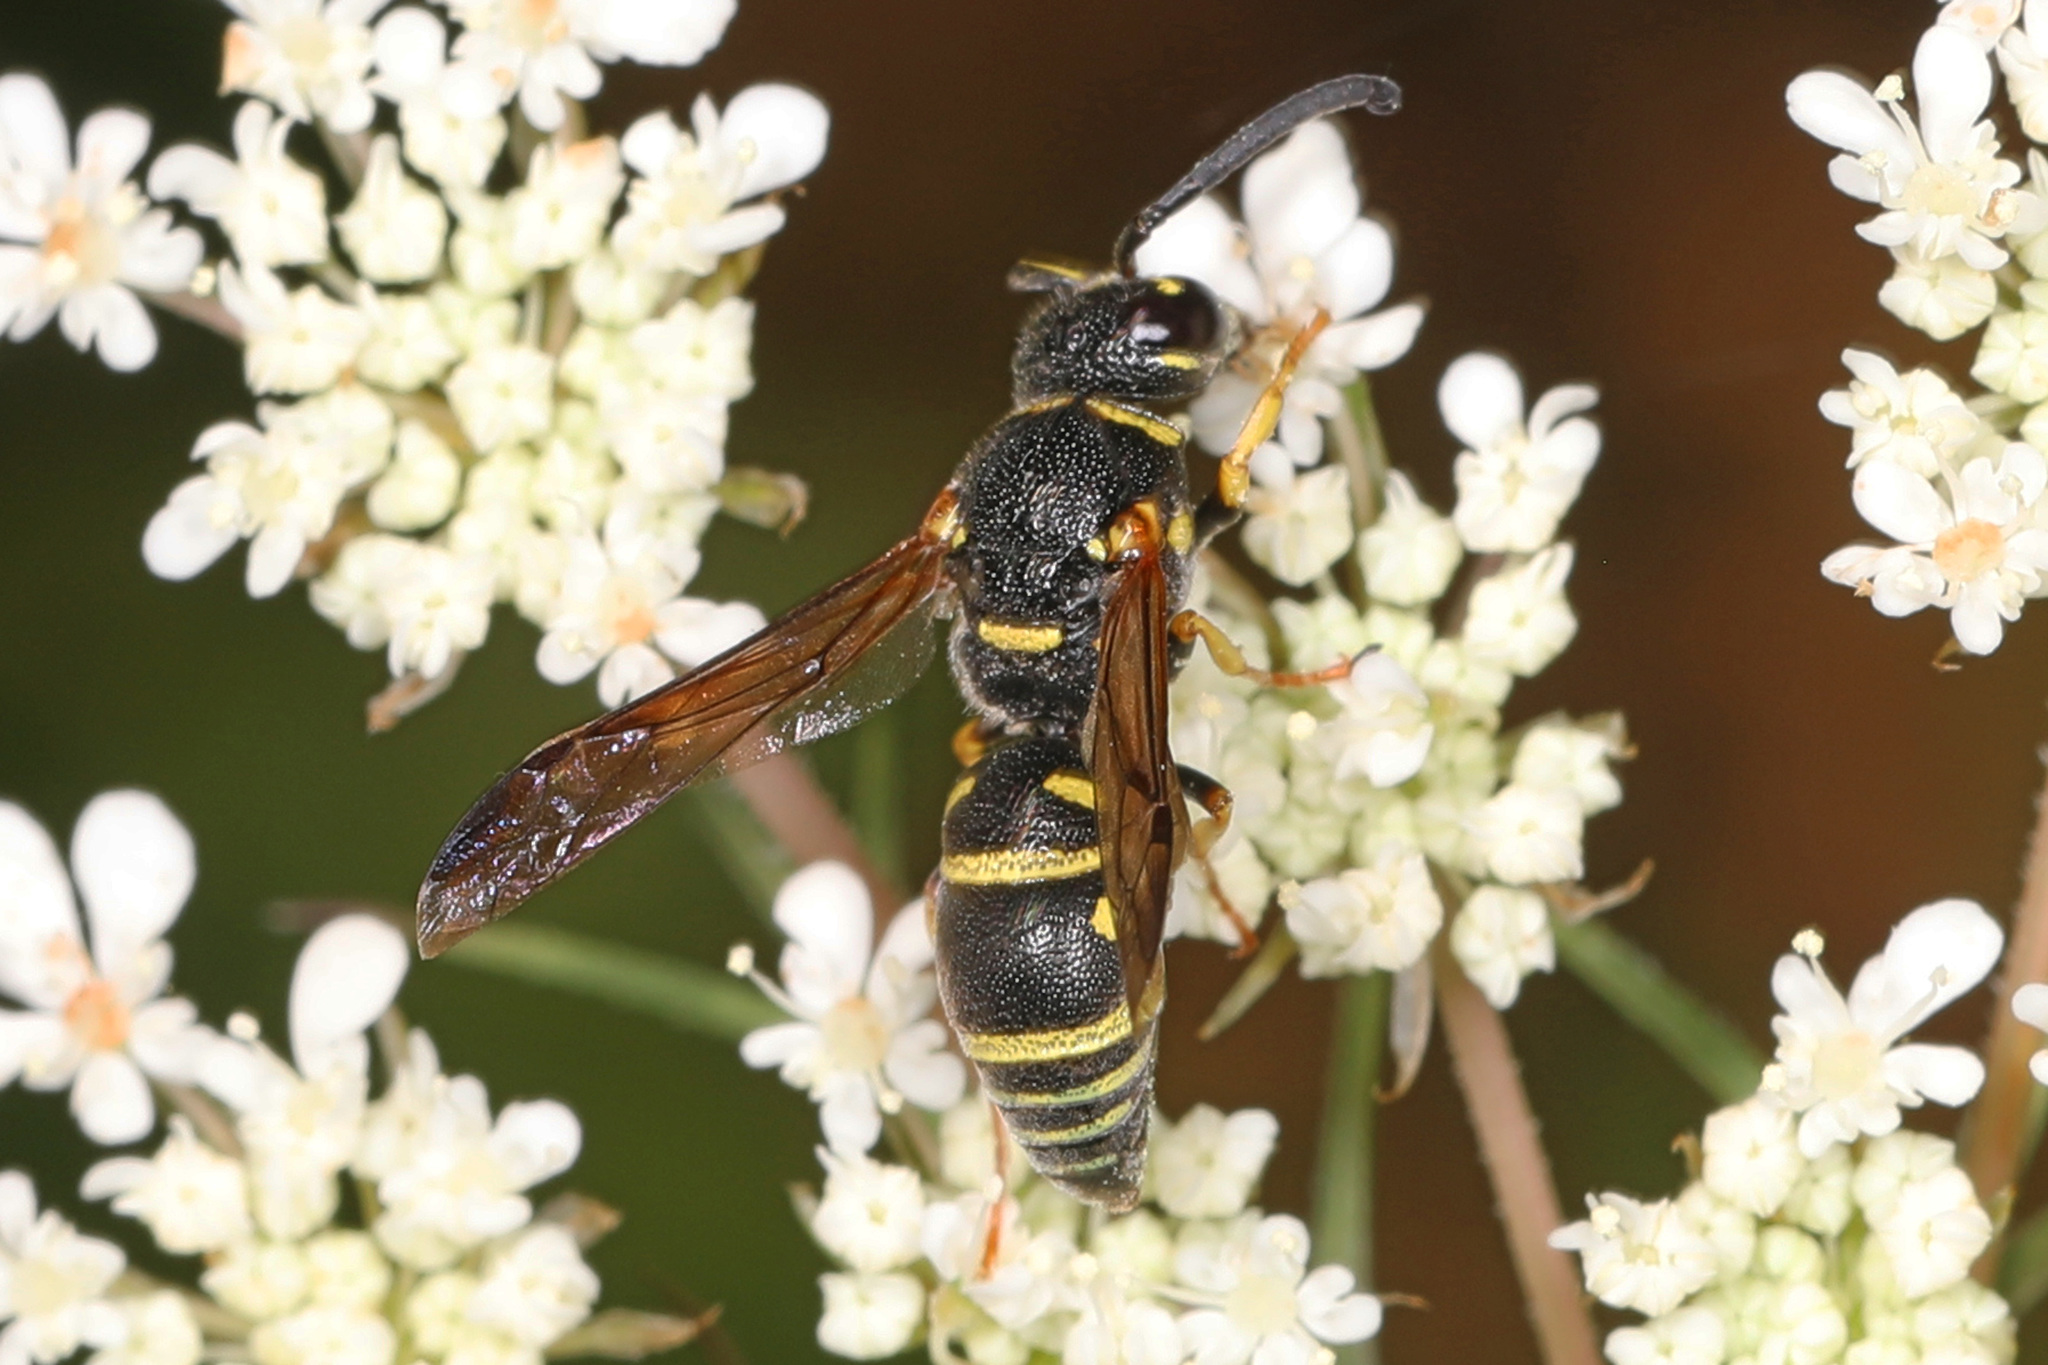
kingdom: Animalia
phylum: Arthropoda
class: Insecta
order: Hymenoptera
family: Eumenidae
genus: Parancistrocerus
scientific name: Parancistrocerus
